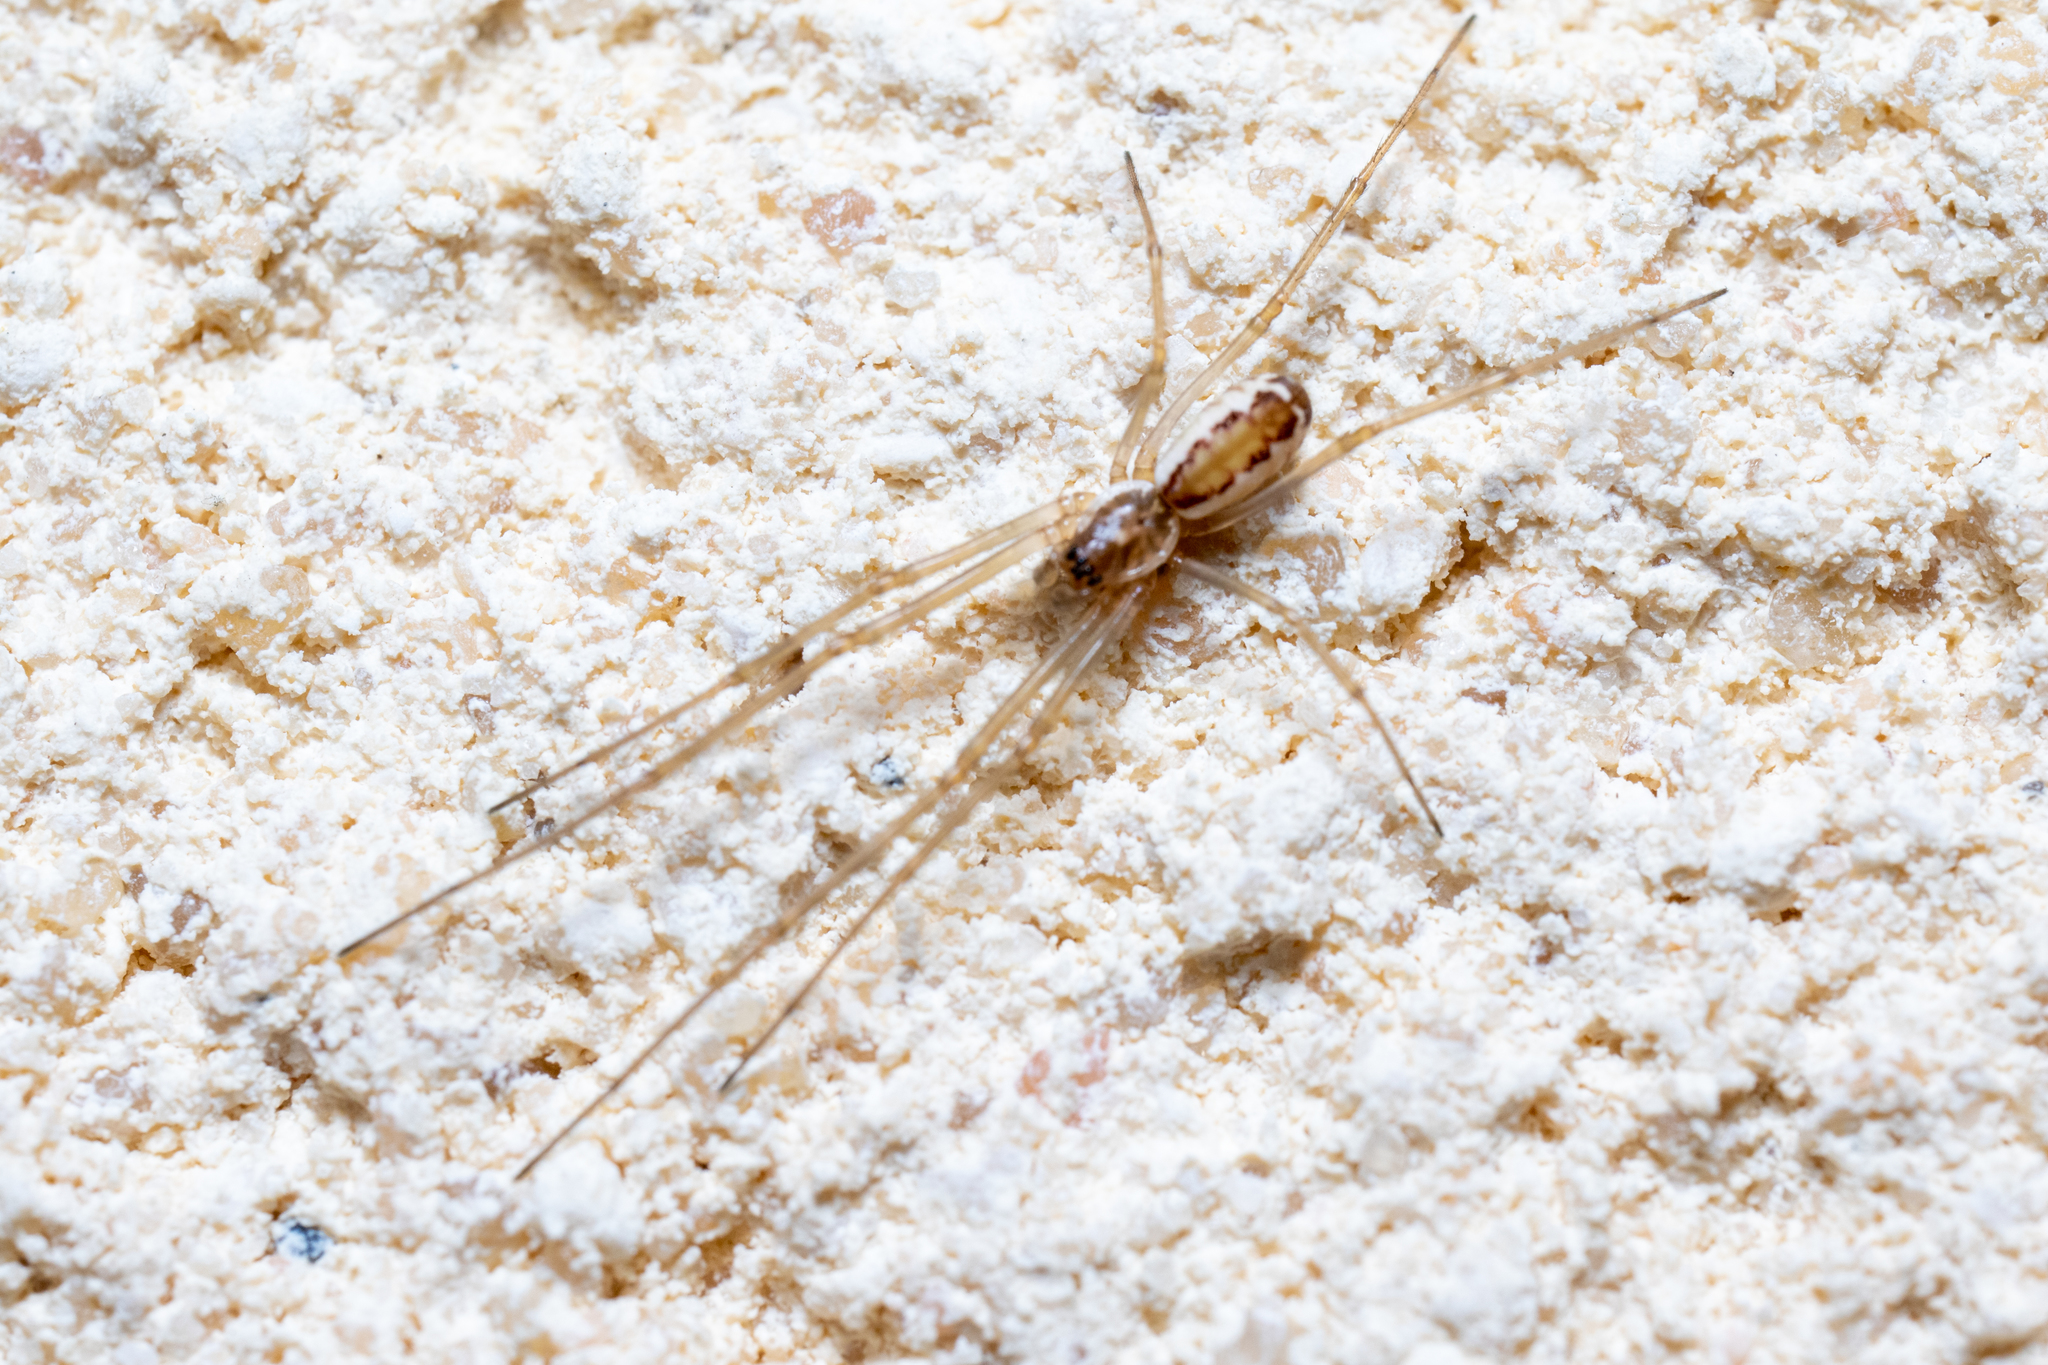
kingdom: Animalia
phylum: Arthropoda
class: Arachnida
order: Araneae
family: Linyphiidae
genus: Neriene
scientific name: Neriene radiata
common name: Filmy dome spider
